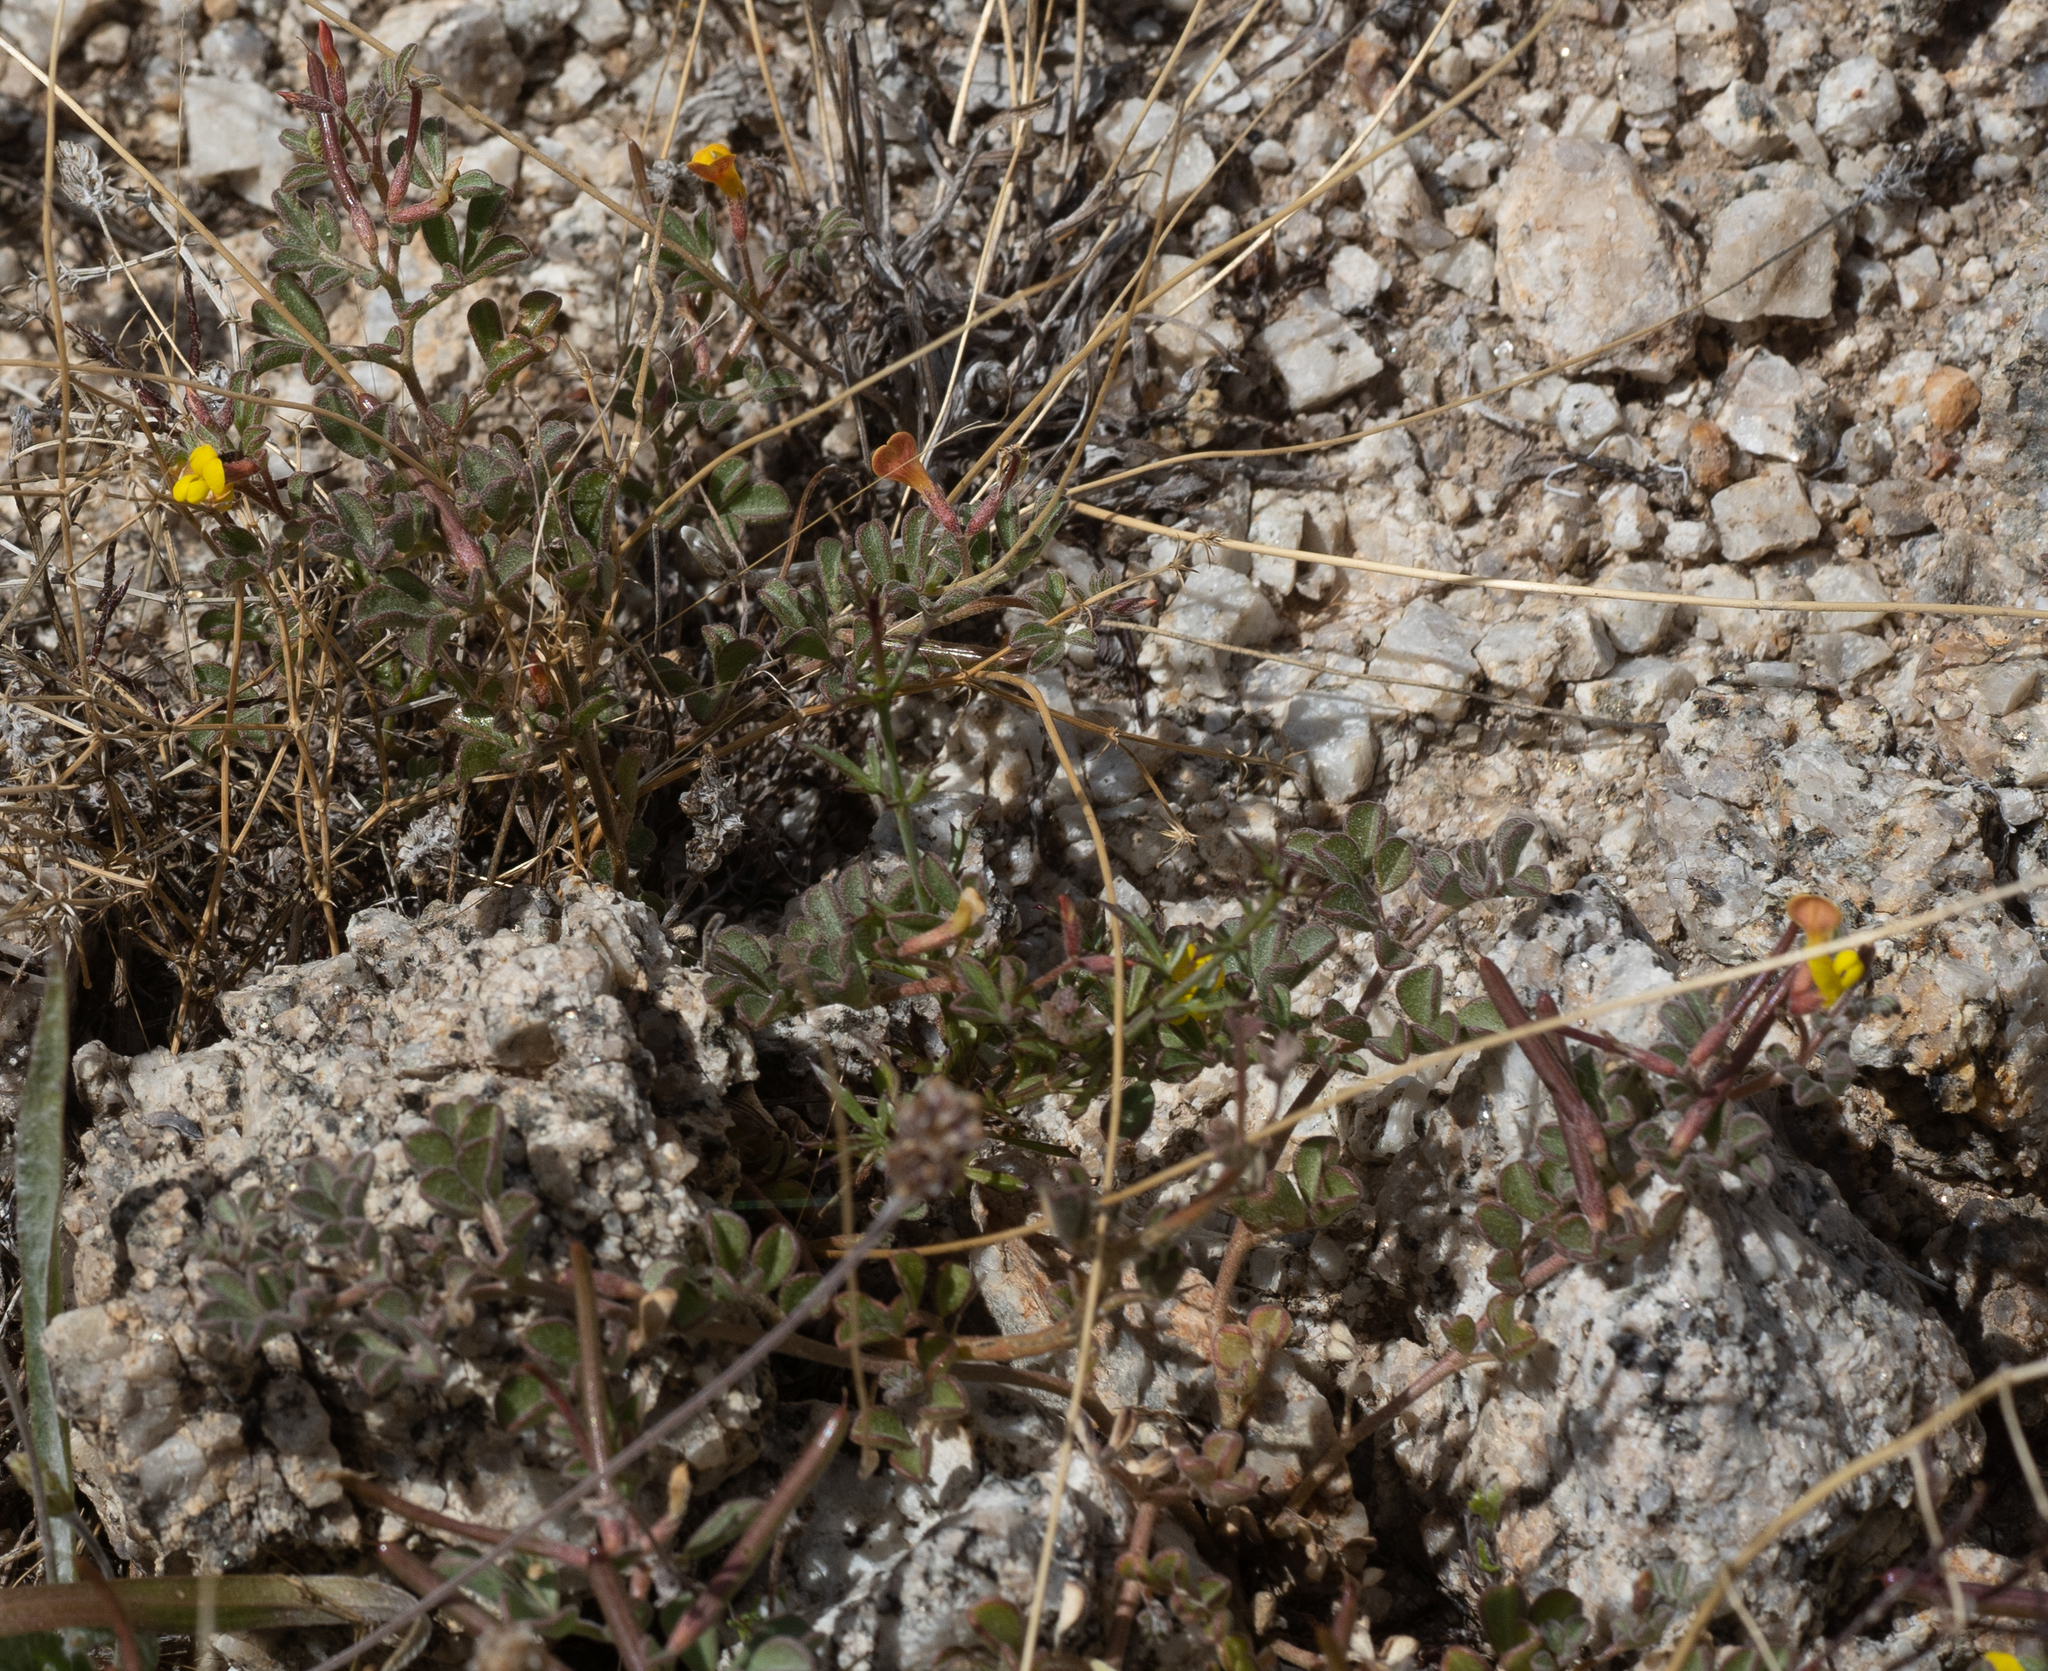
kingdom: Plantae
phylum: Tracheophyta
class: Magnoliopsida
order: Fabales
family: Fabaceae
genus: Acmispon
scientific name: Acmispon strigosus
